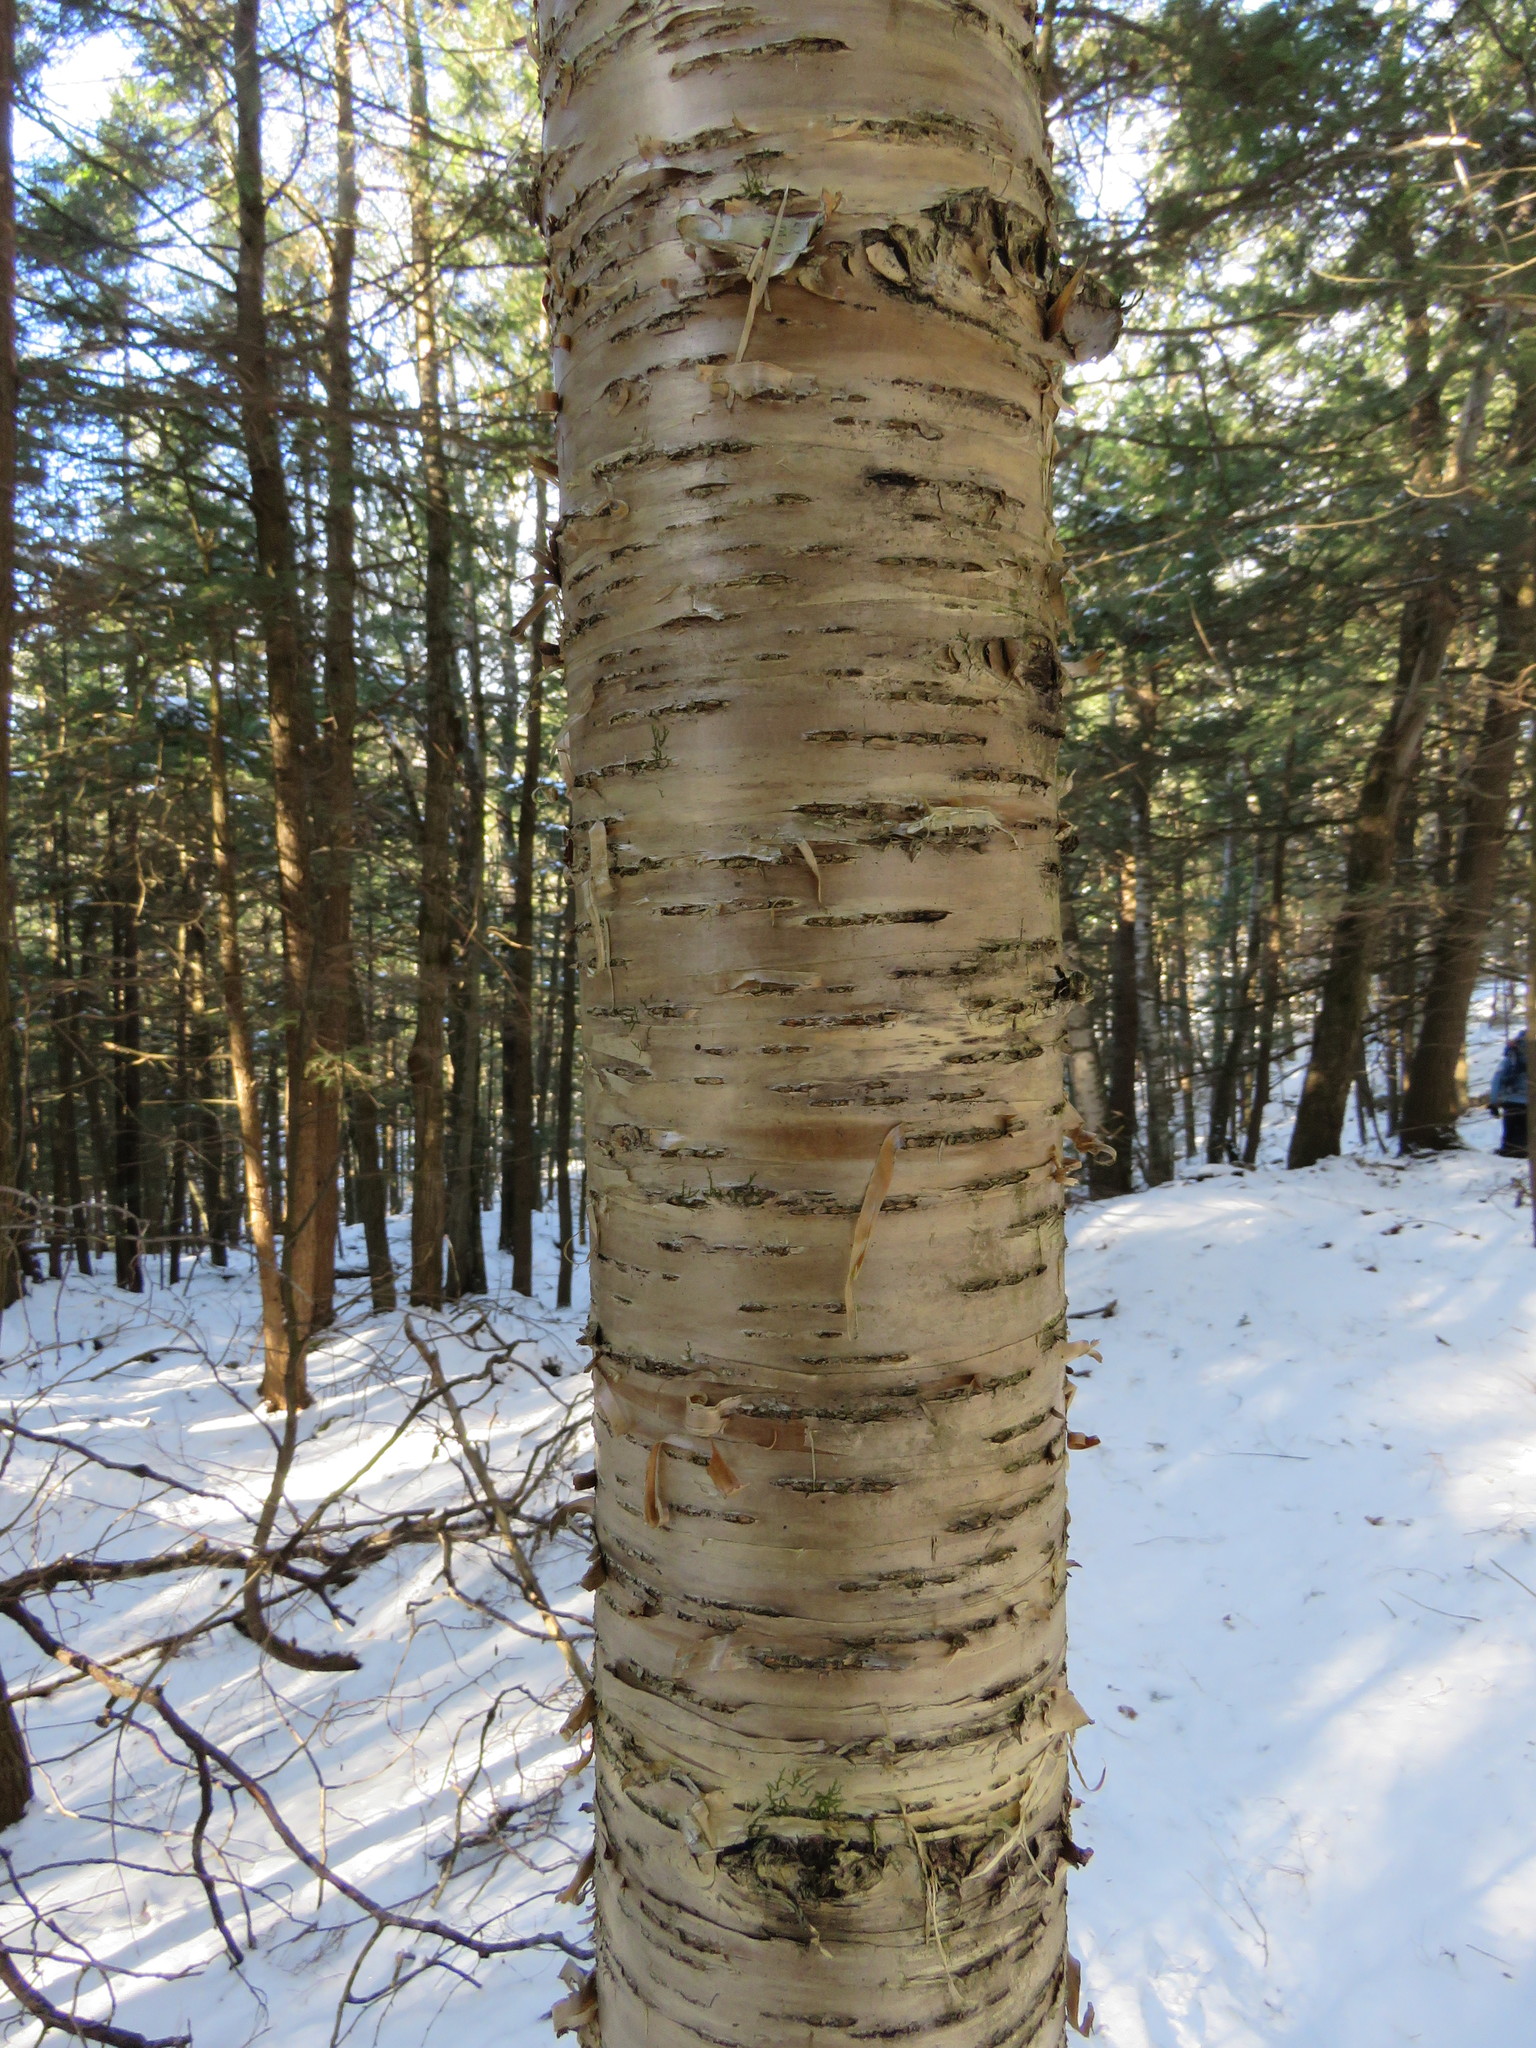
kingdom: Plantae
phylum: Tracheophyta
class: Magnoliopsida
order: Fagales
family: Betulaceae
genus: Betula
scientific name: Betula alleghaniensis
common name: Yellow birch
